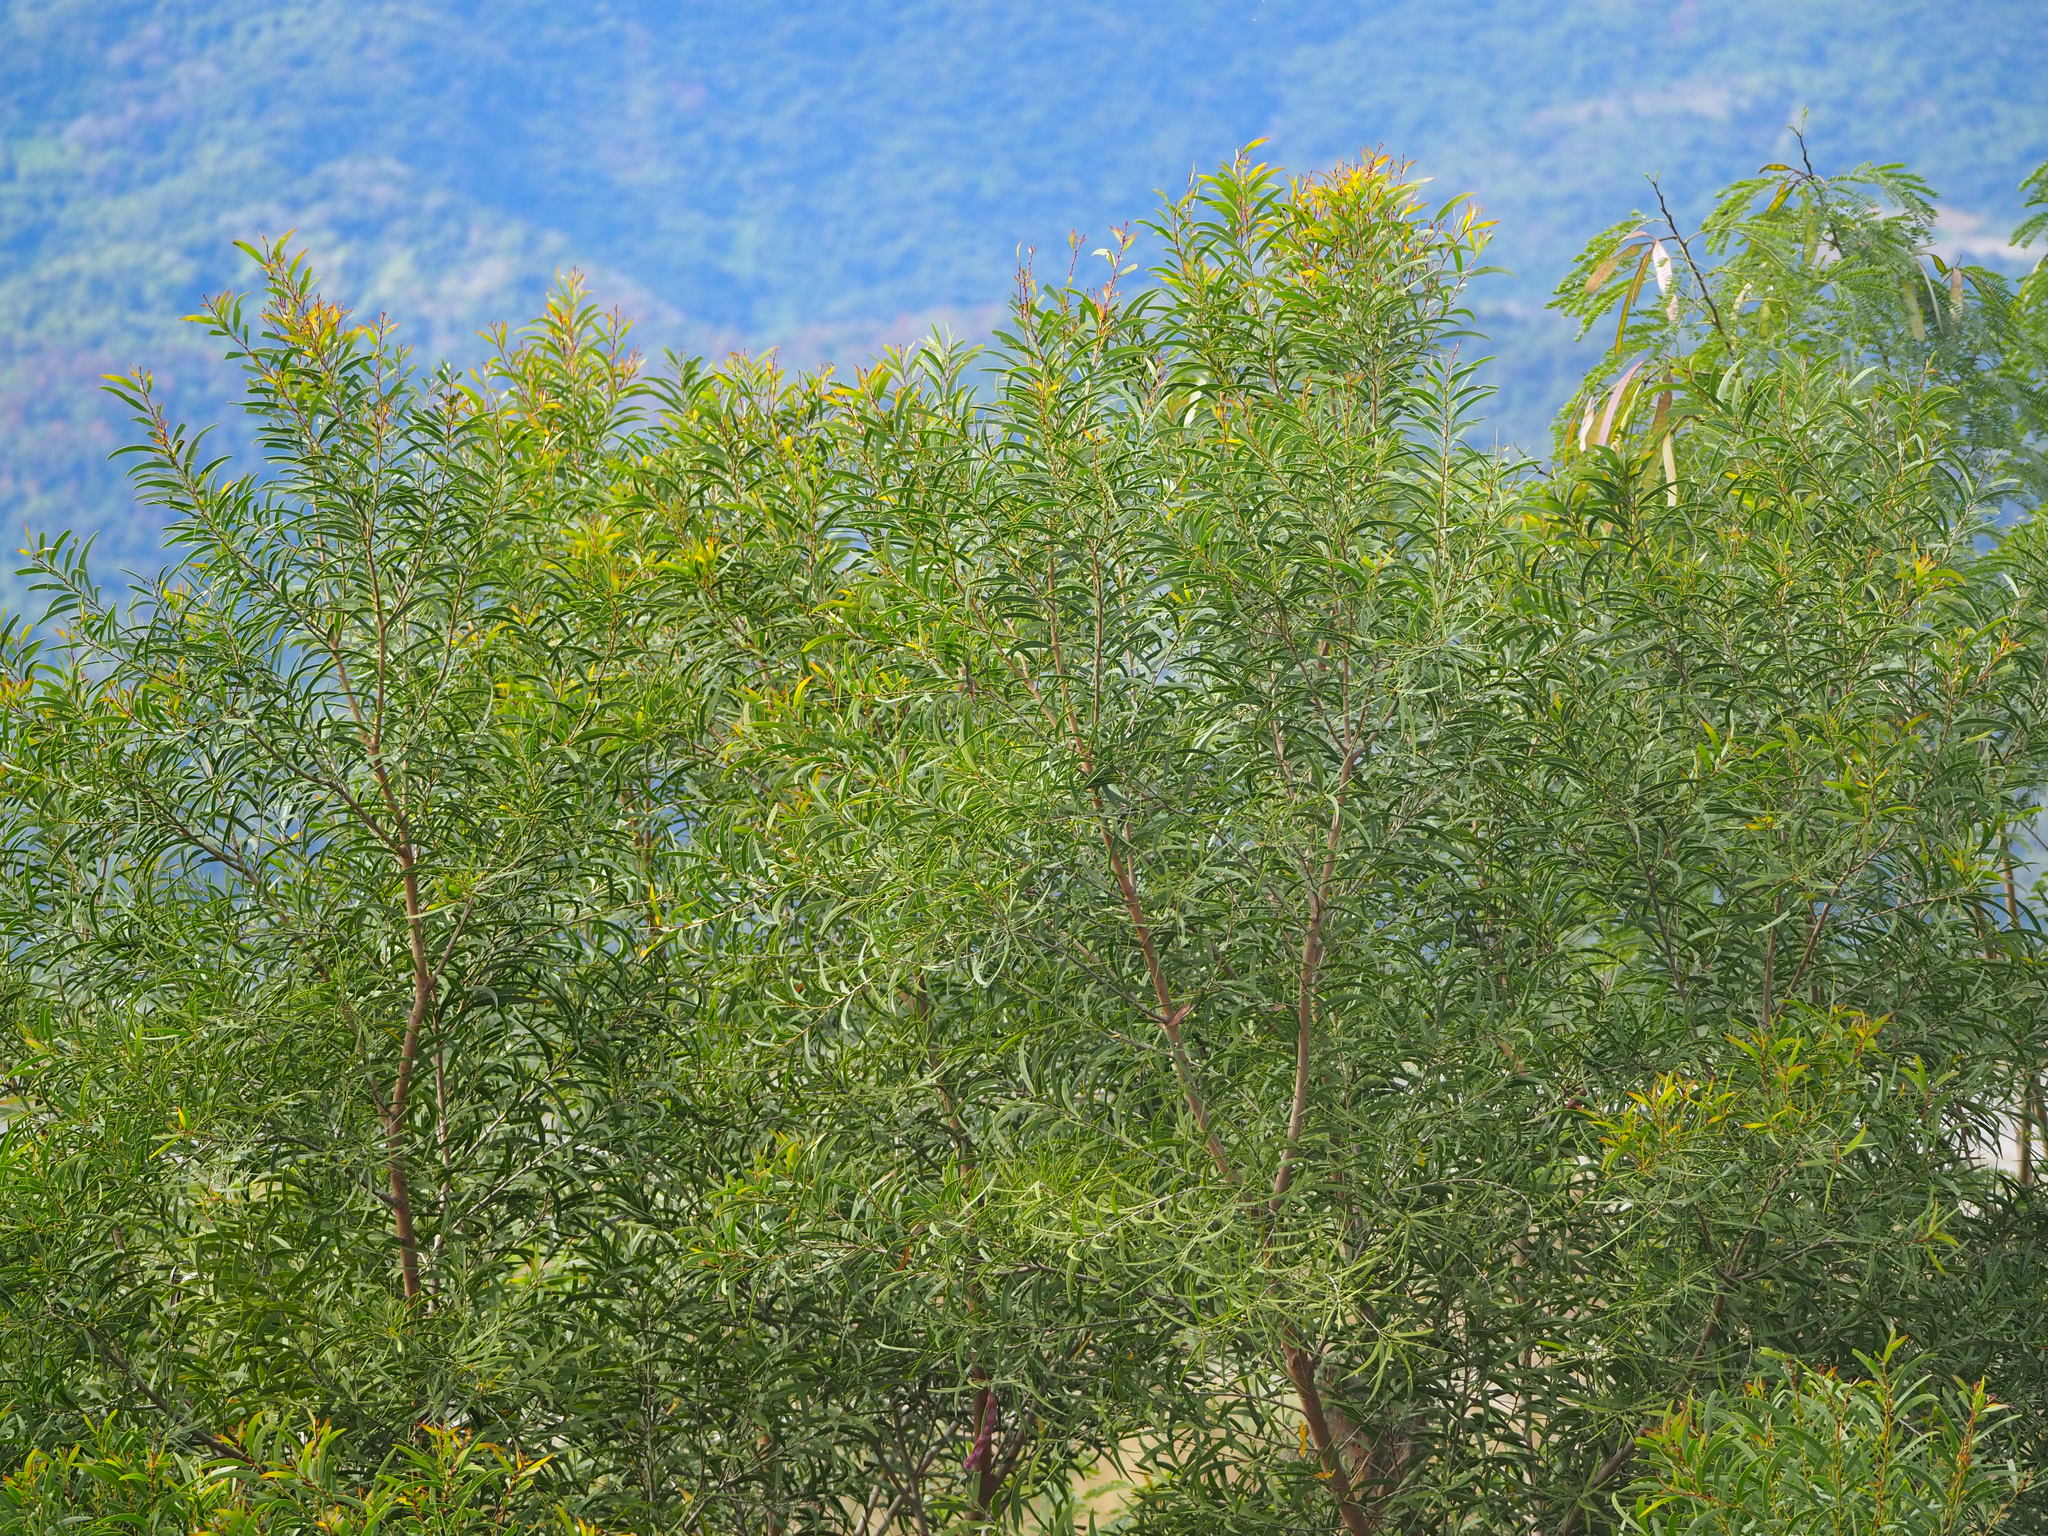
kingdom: Plantae
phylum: Tracheophyta
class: Magnoliopsida
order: Fabales
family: Fabaceae
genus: Acacia
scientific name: Acacia confusa
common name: Formosan koa
